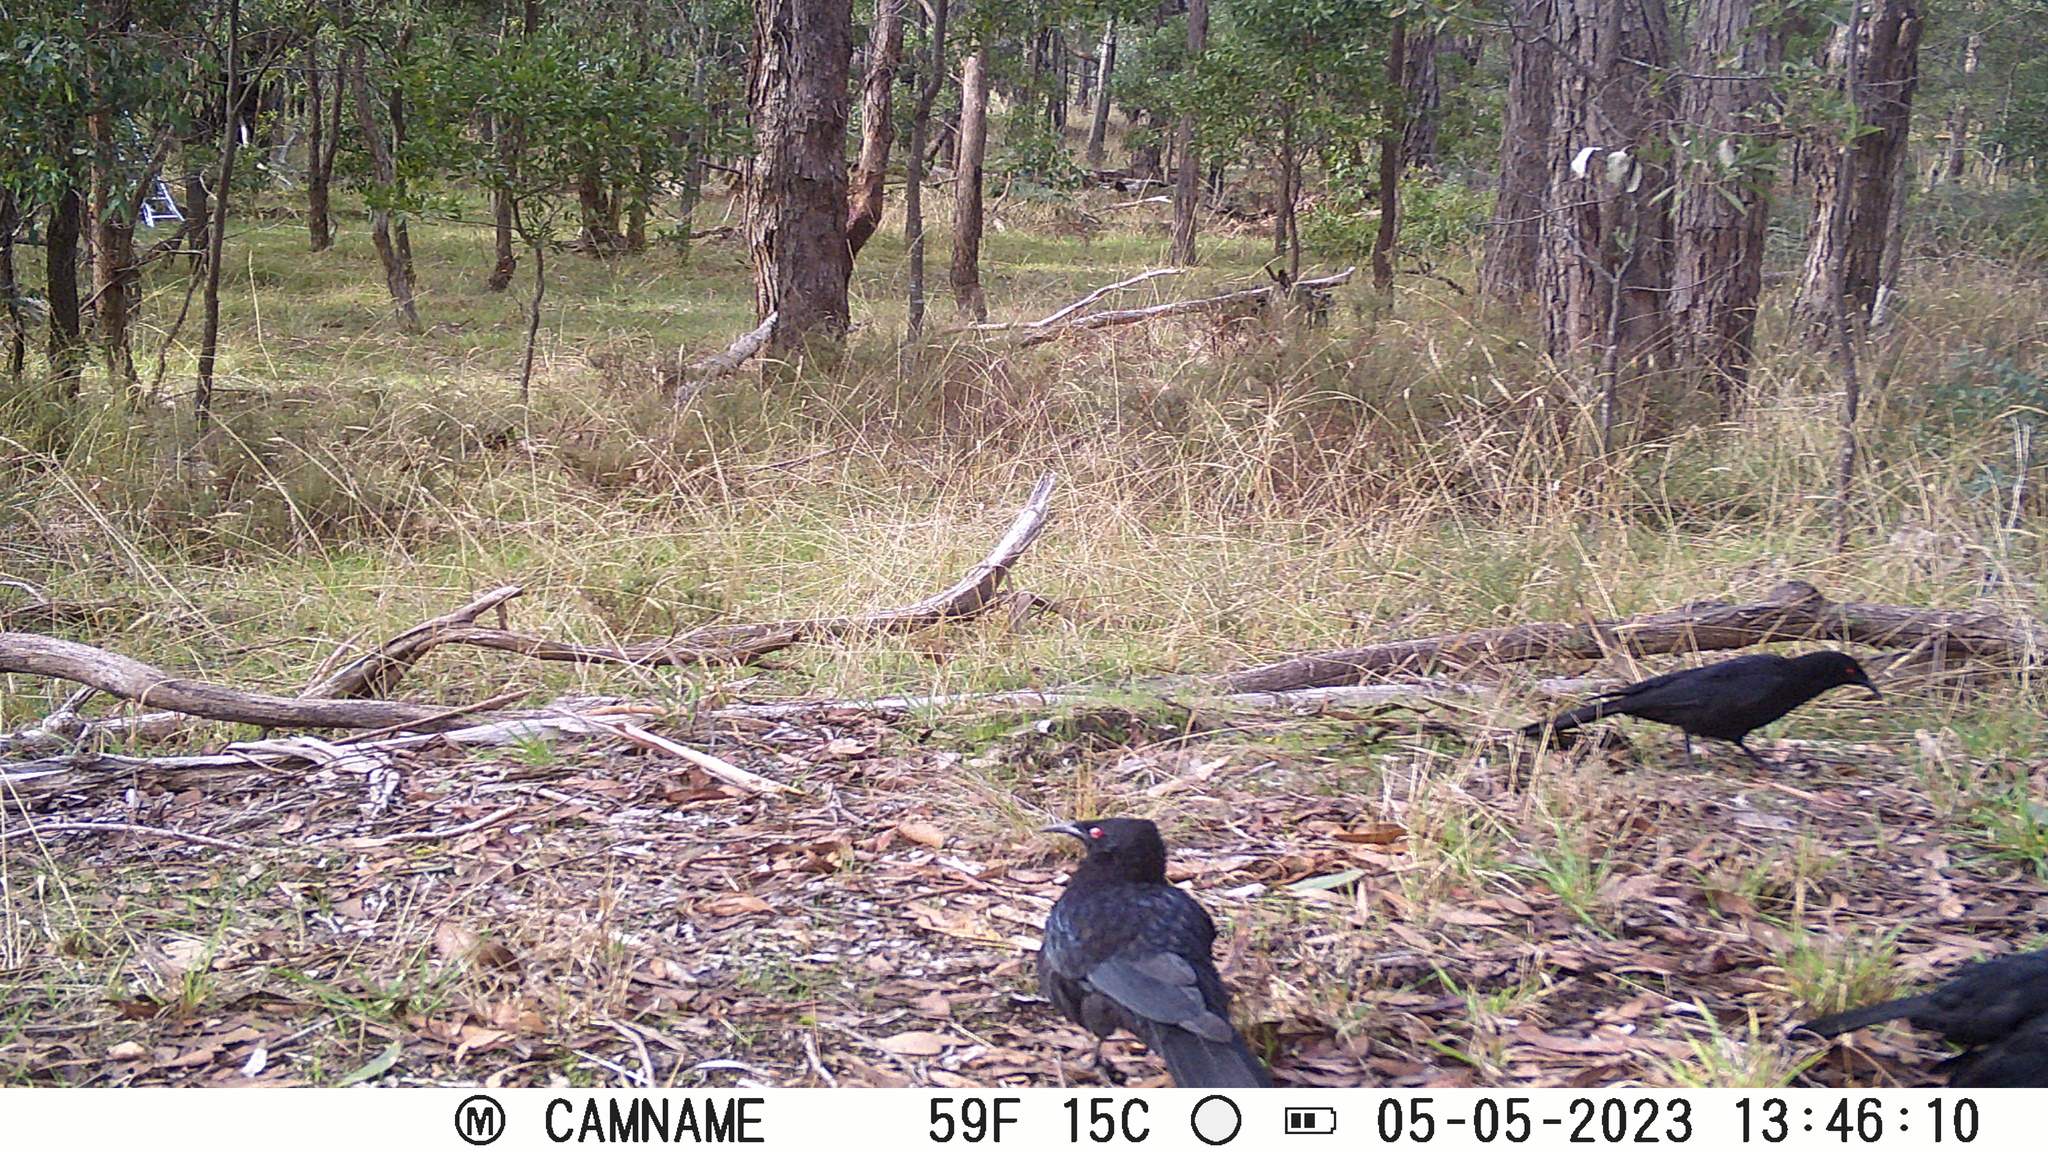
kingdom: Animalia
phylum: Chordata
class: Aves
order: Passeriformes
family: Corcoracidae
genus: Corcorax
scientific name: Corcorax melanoramphos
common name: White-winged chough
